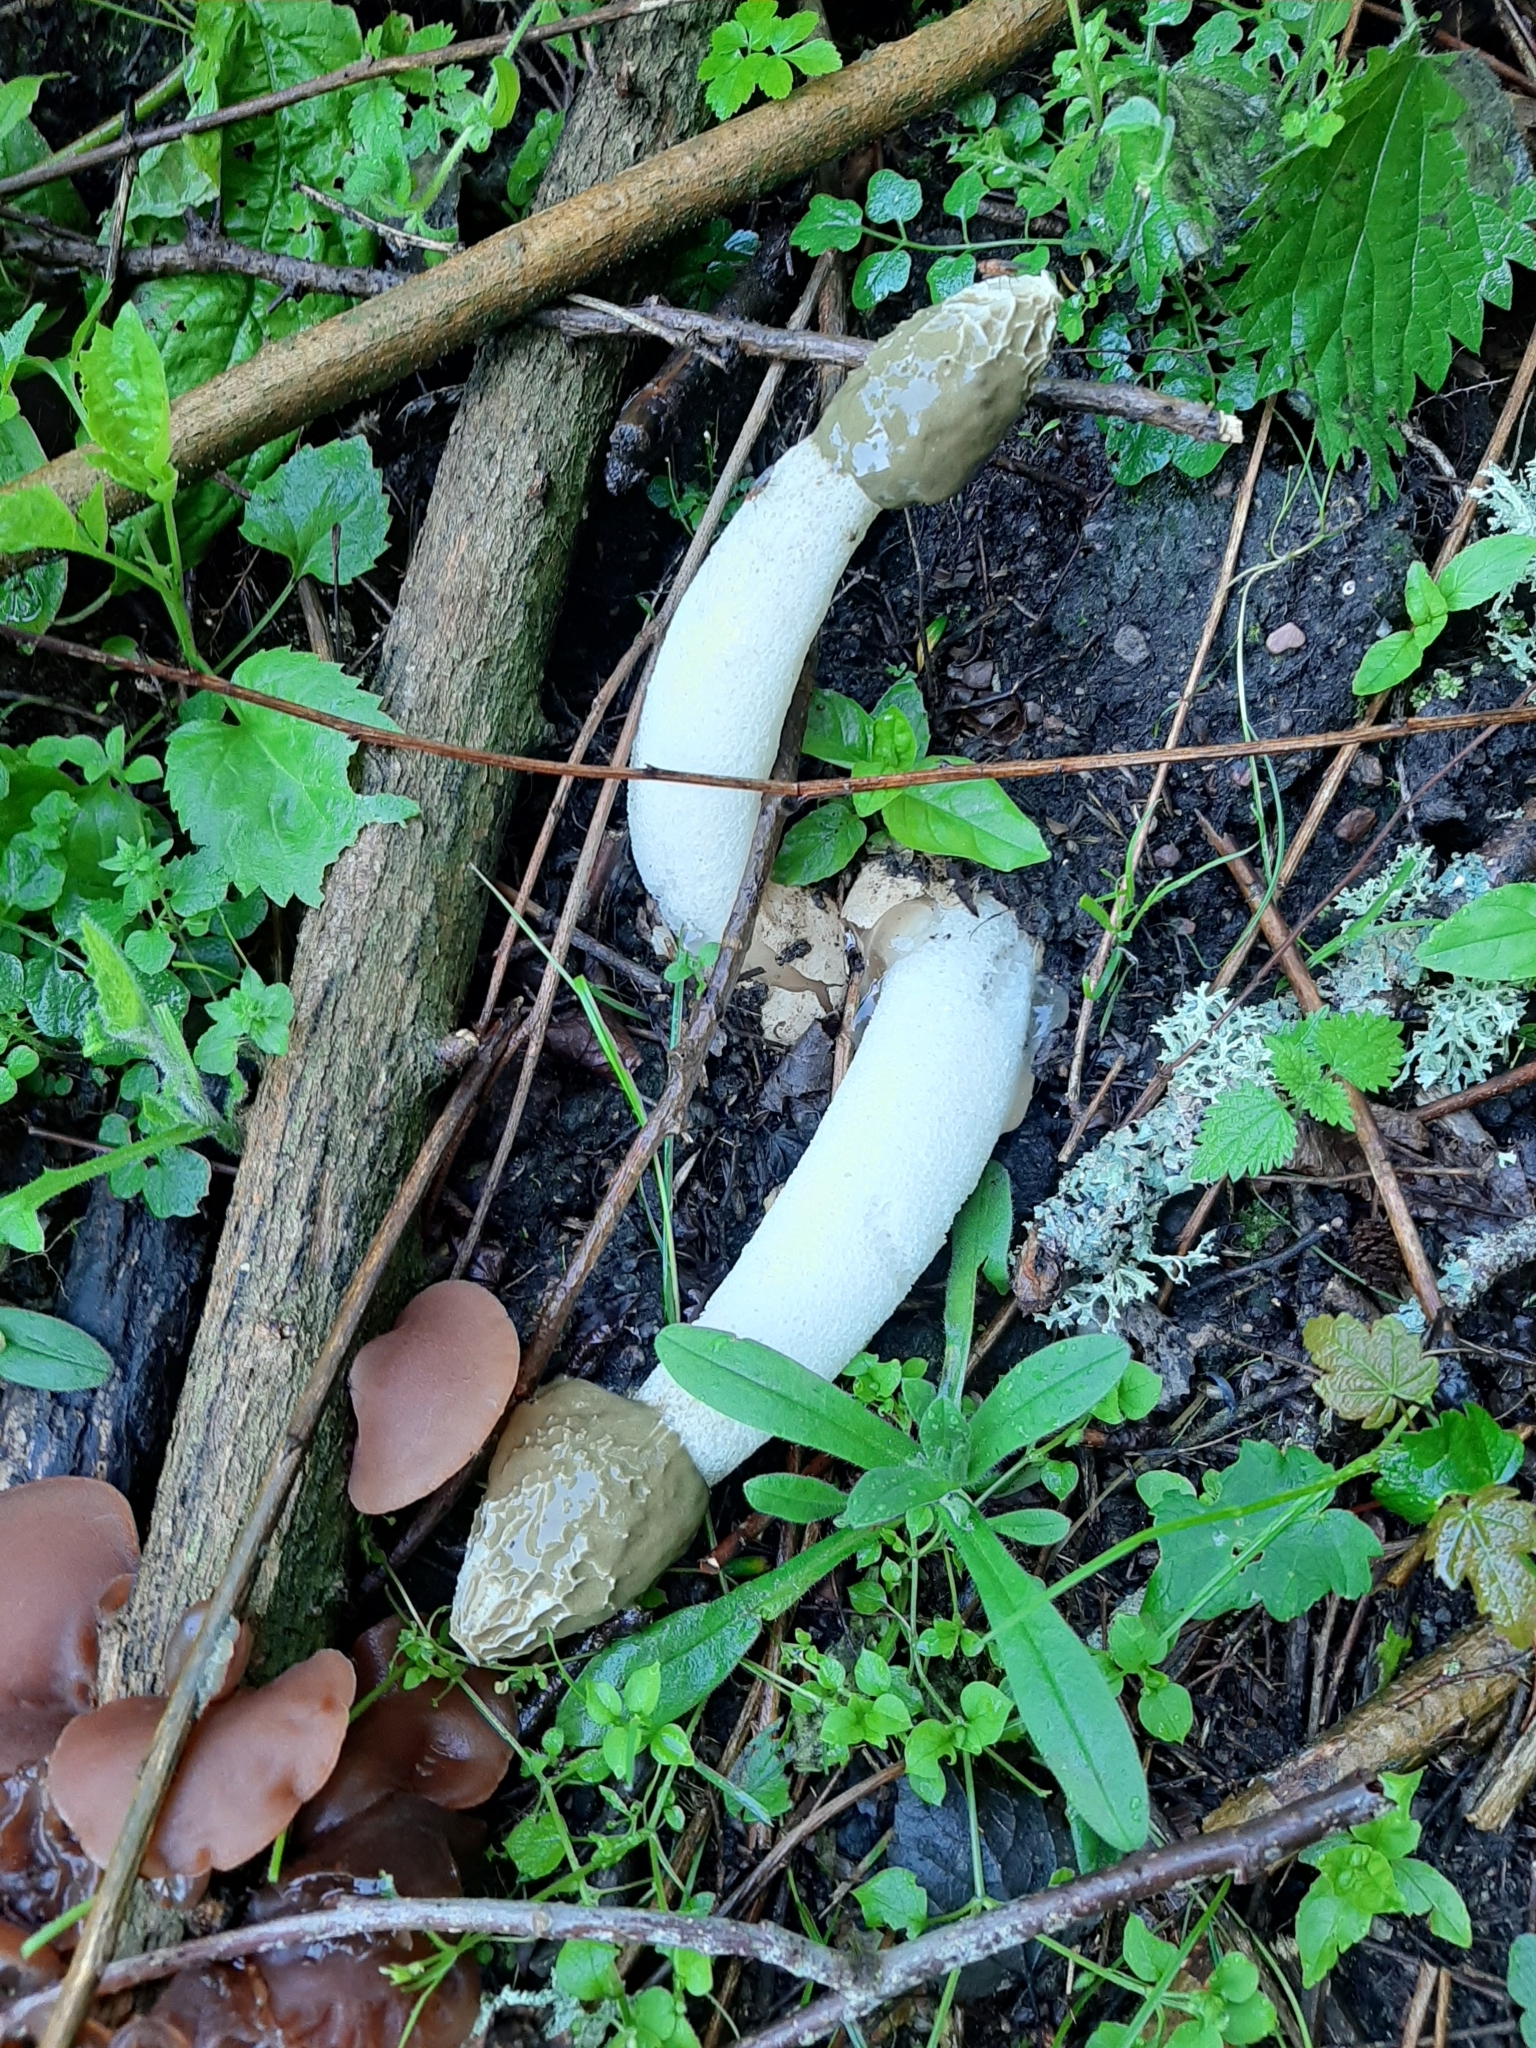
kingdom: Fungi
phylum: Basidiomycota
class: Agaricomycetes
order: Phallales
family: Phallaceae
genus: Phallus
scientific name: Phallus impudicus
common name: Common stinkhorn
